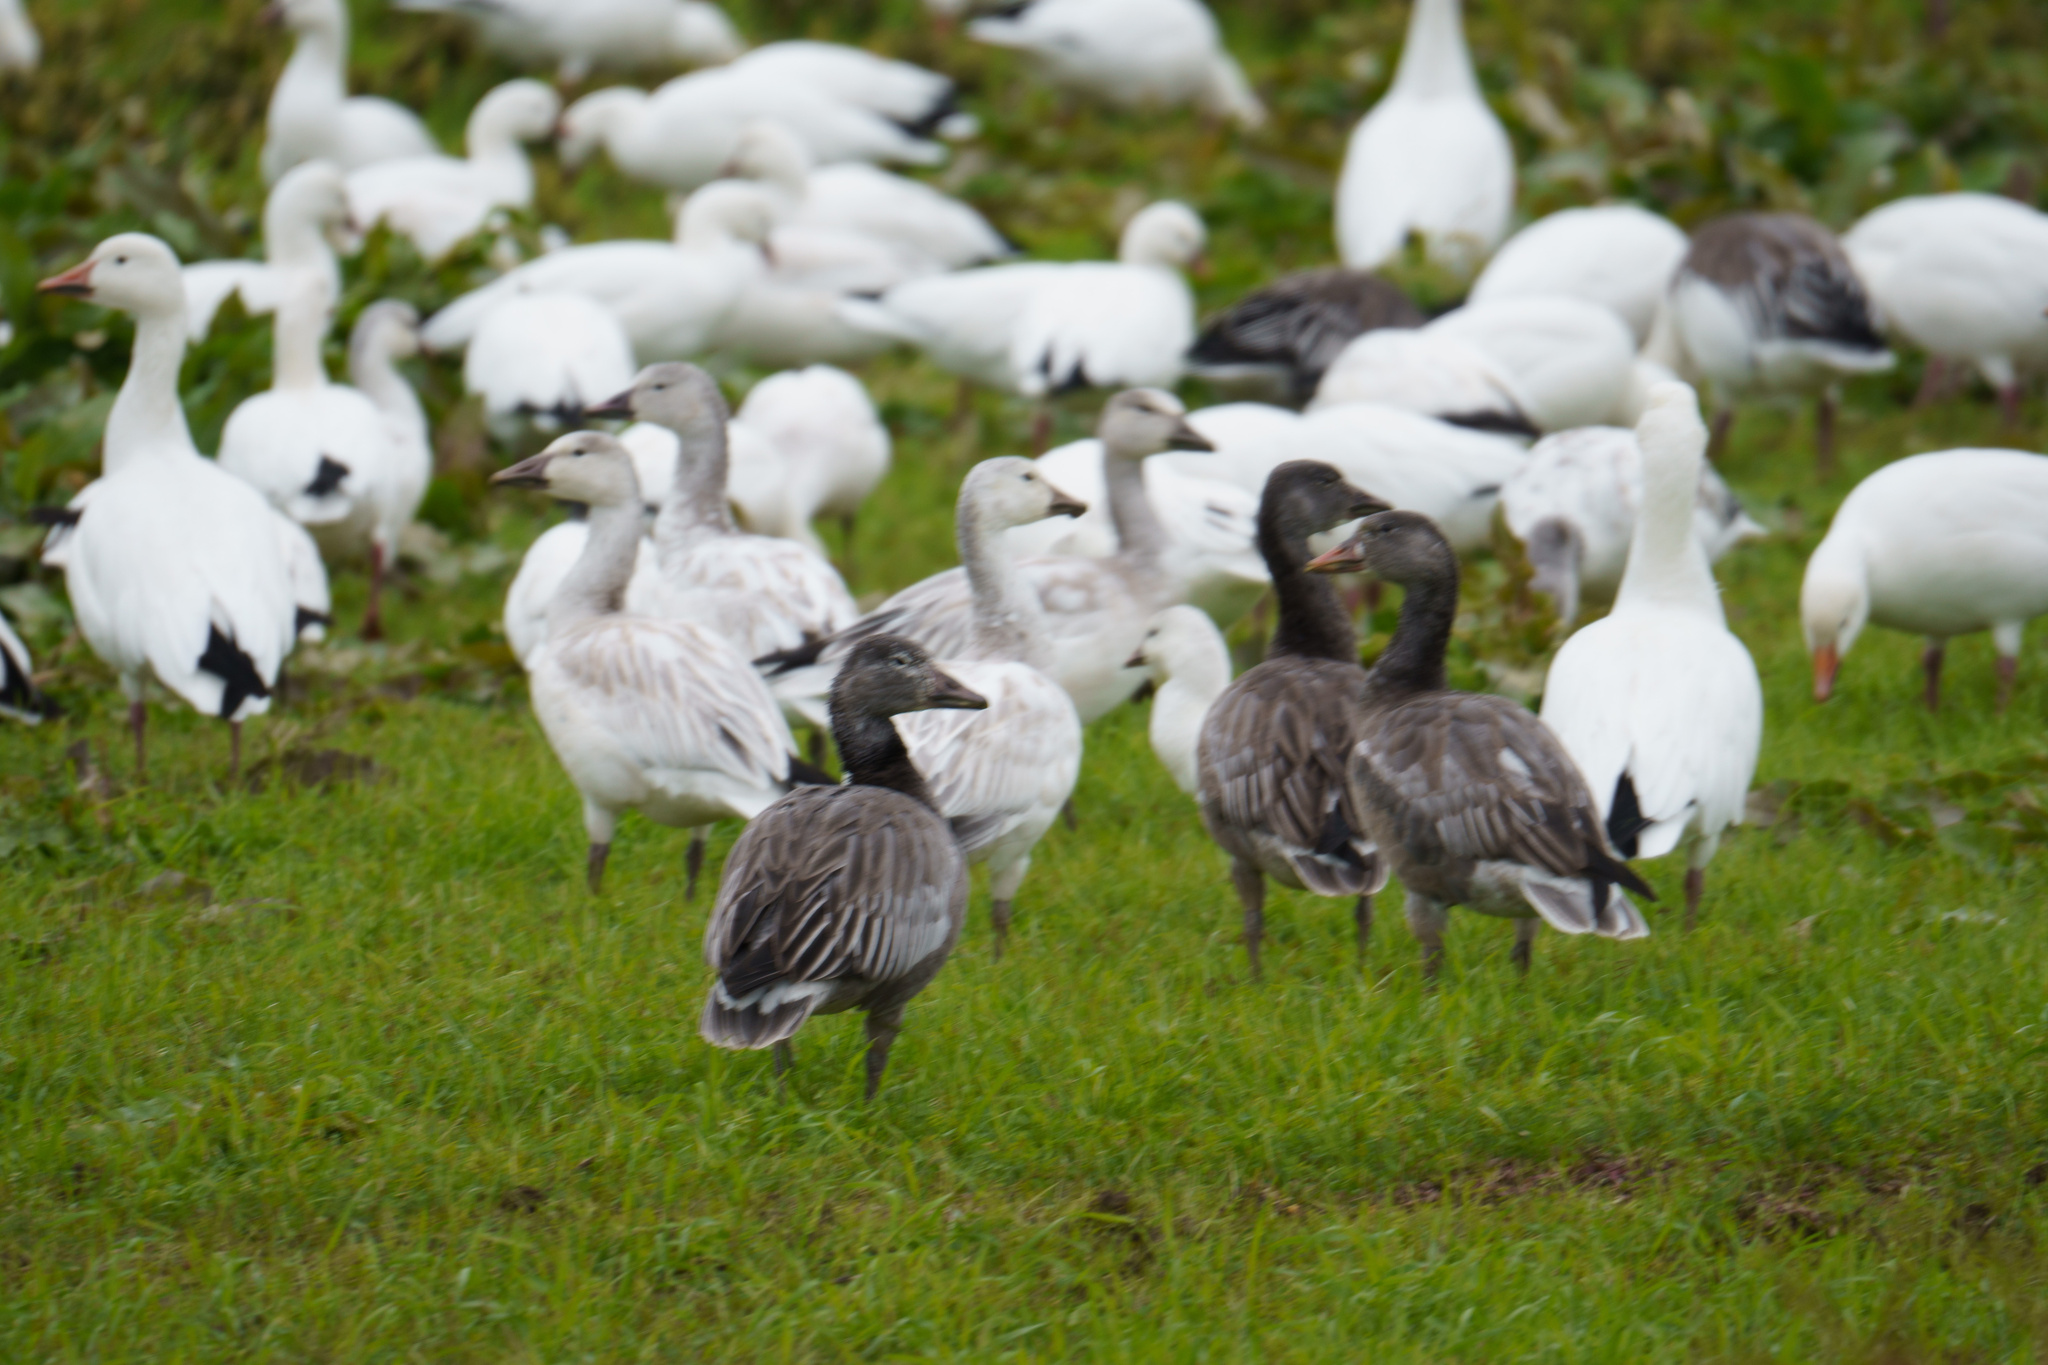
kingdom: Animalia
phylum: Chordata
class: Aves
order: Anseriformes
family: Anatidae
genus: Anser
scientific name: Anser caerulescens
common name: Snow goose
